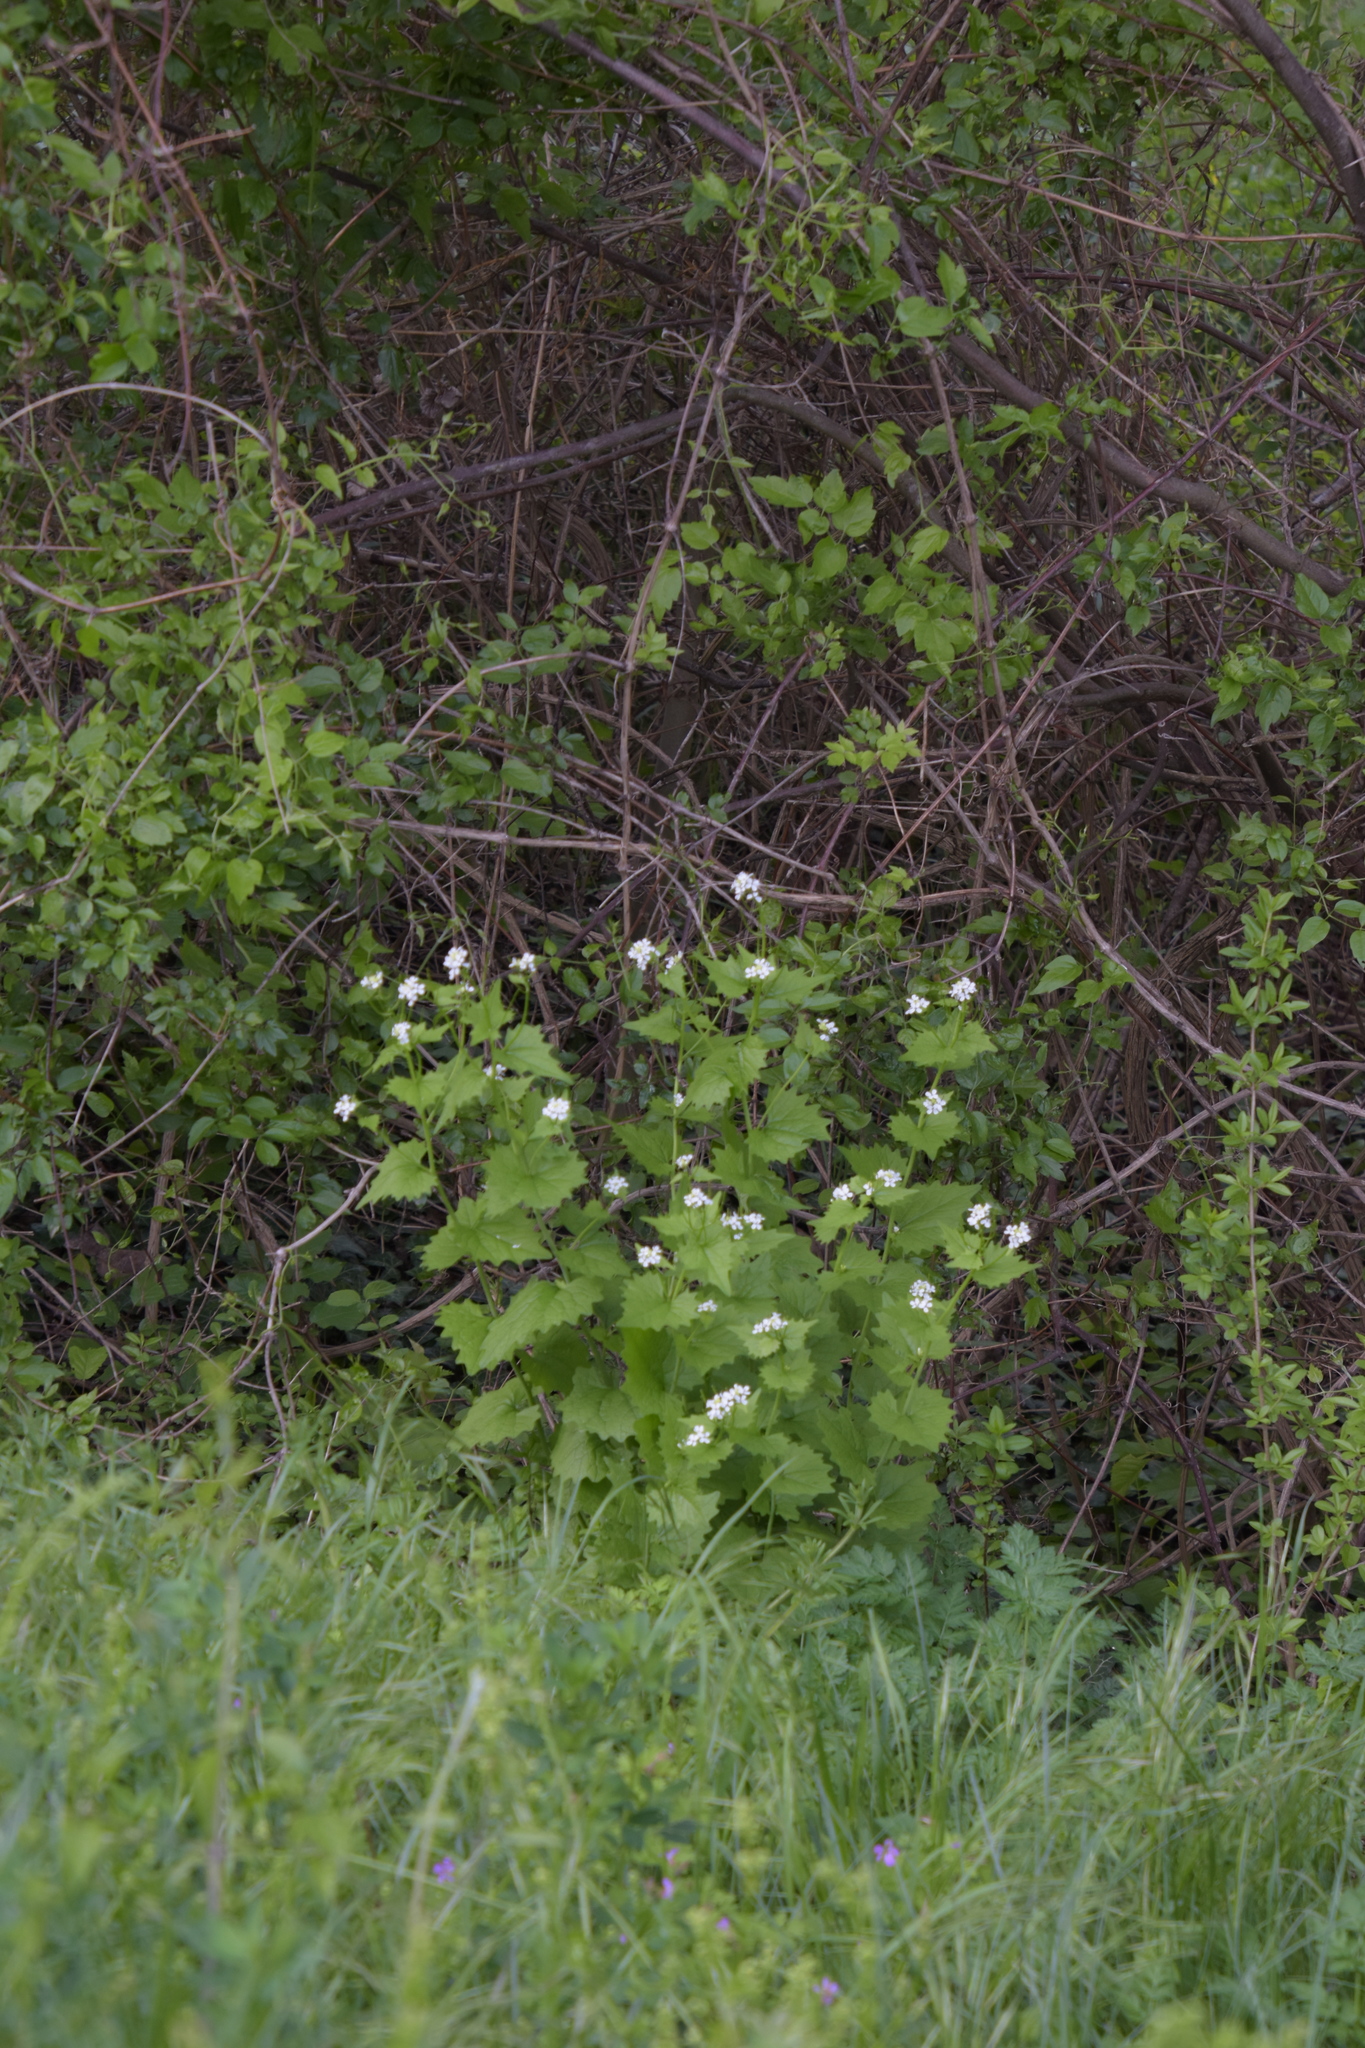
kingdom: Plantae
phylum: Tracheophyta
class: Magnoliopsida
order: Brassicales
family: Brassicaceae
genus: Alliaria
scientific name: Alliaria petiolata
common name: Garlic mustard
